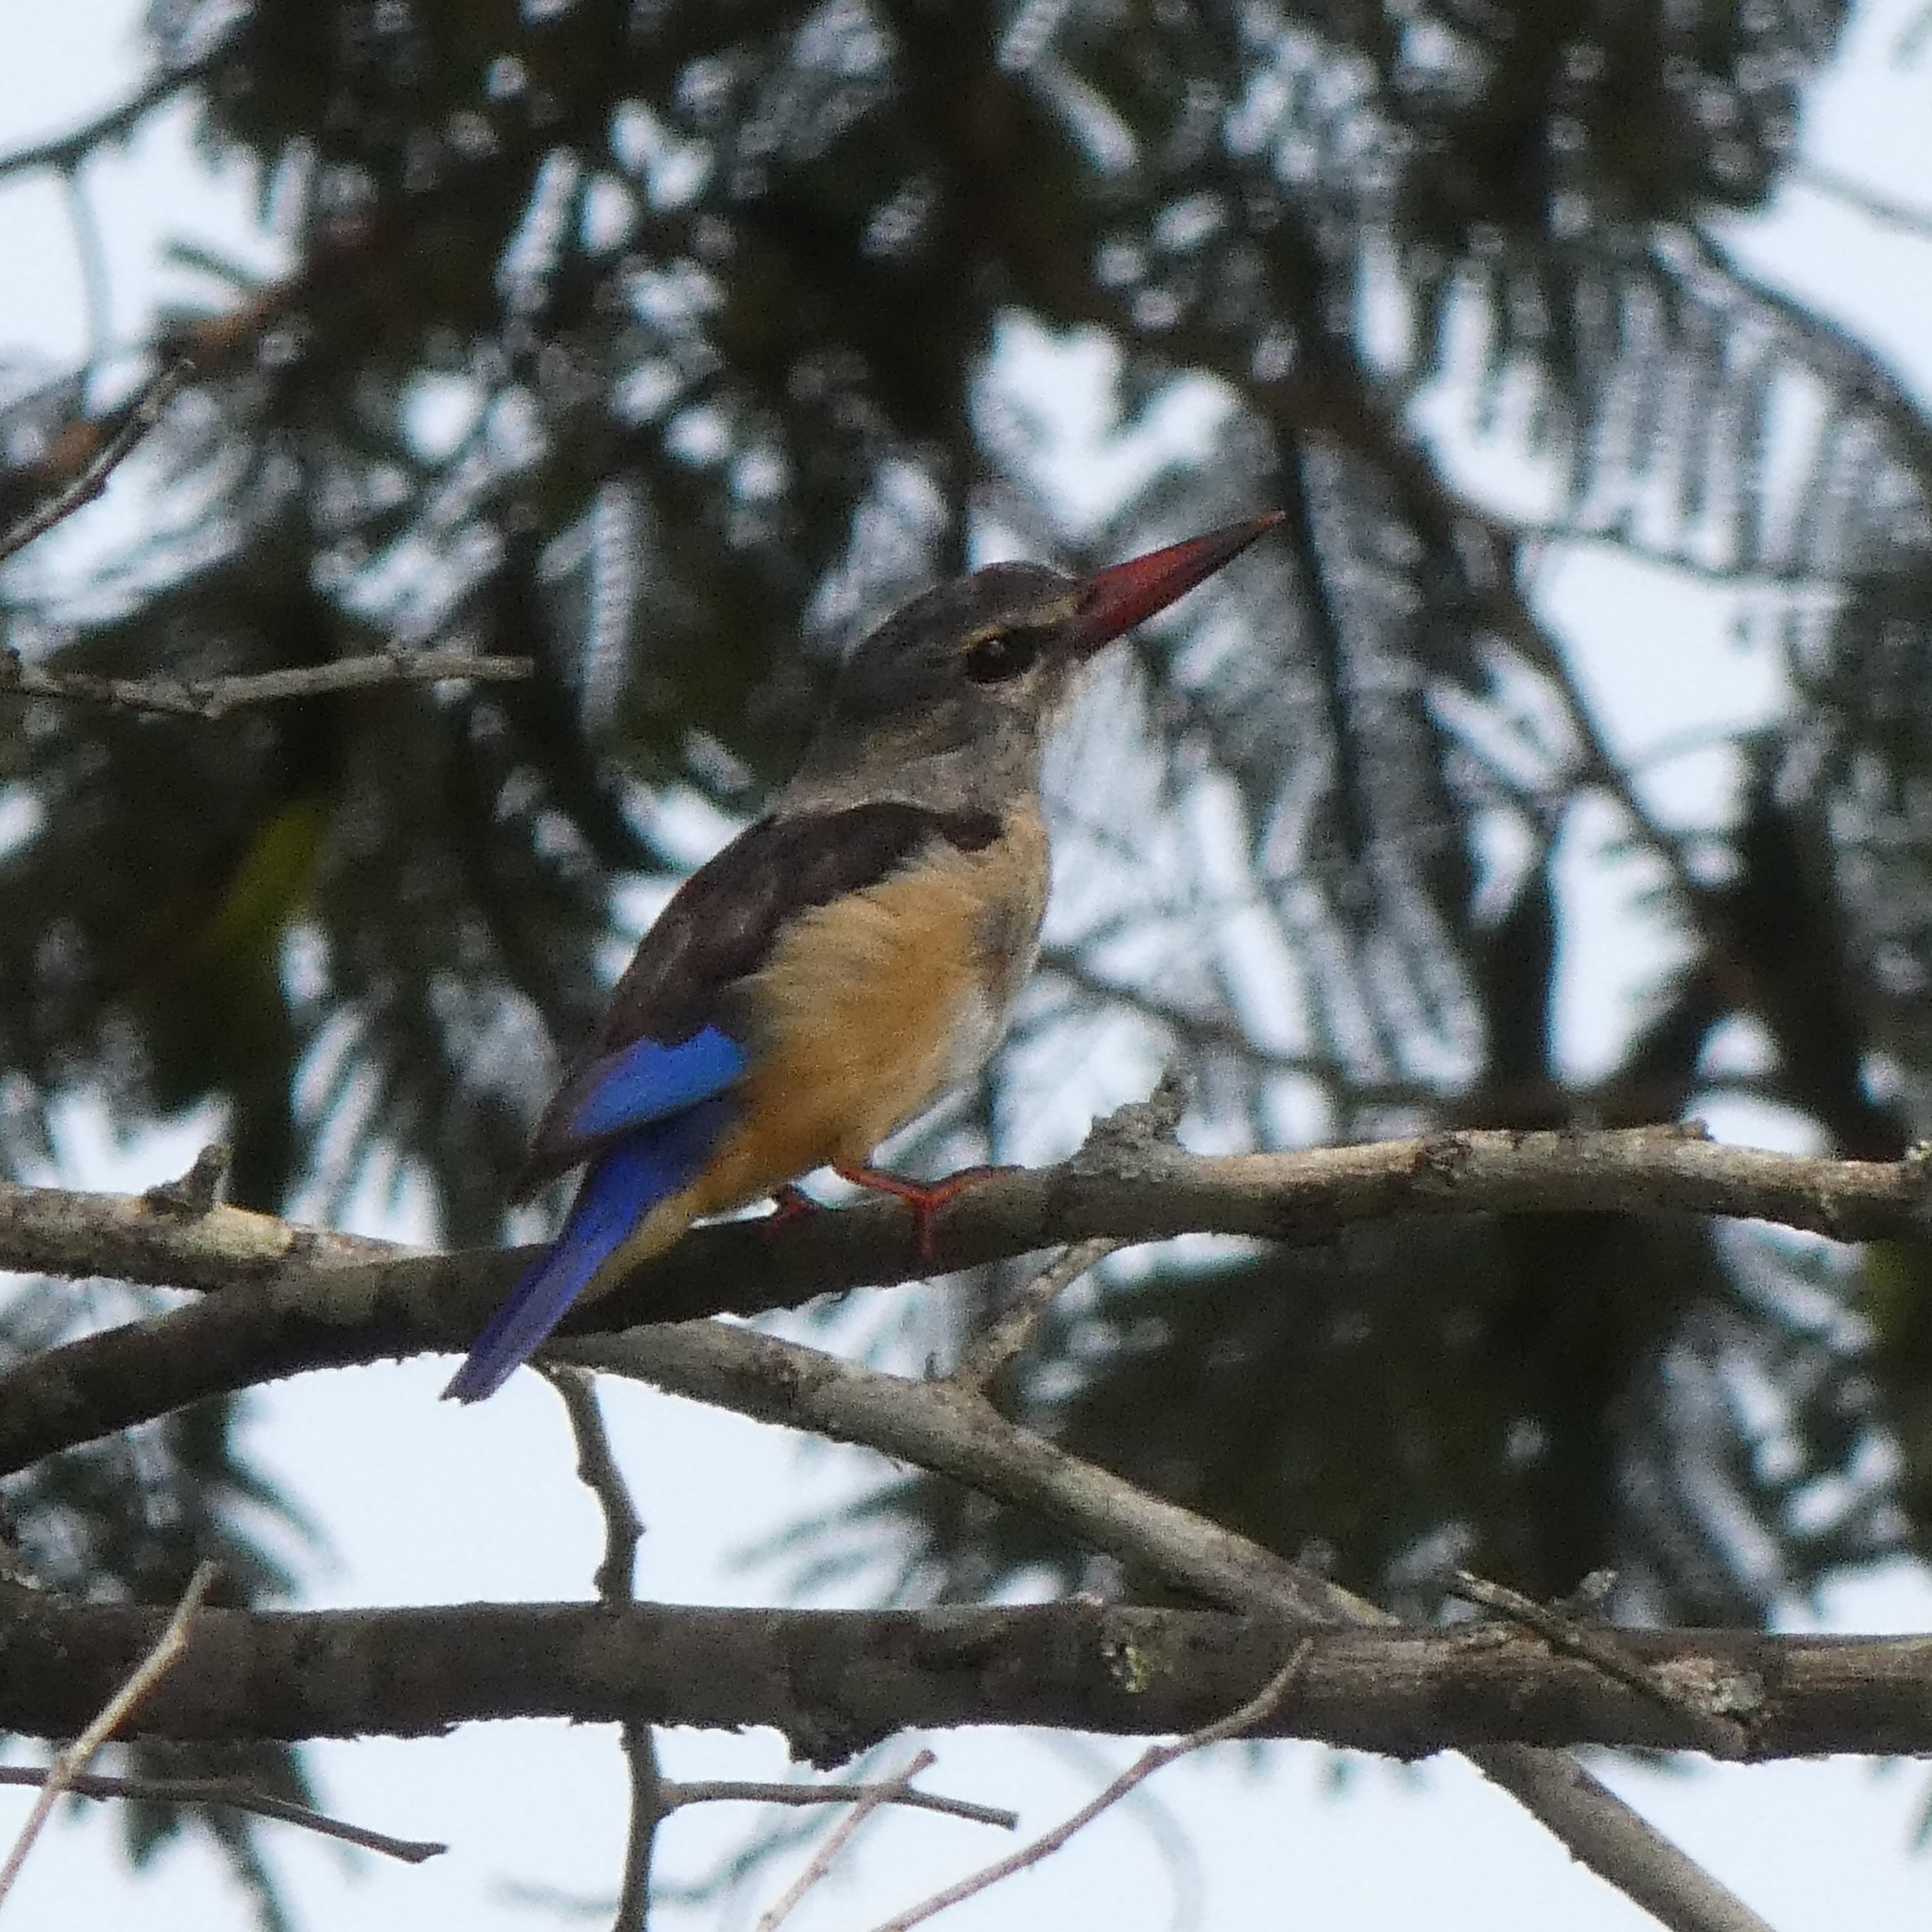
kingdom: Animalia
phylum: Chordata
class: Aves
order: Coraciiformes
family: Alcedinidae
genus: Halcyon
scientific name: Halcyon leucocephala
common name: Grey-headed kingfisher
